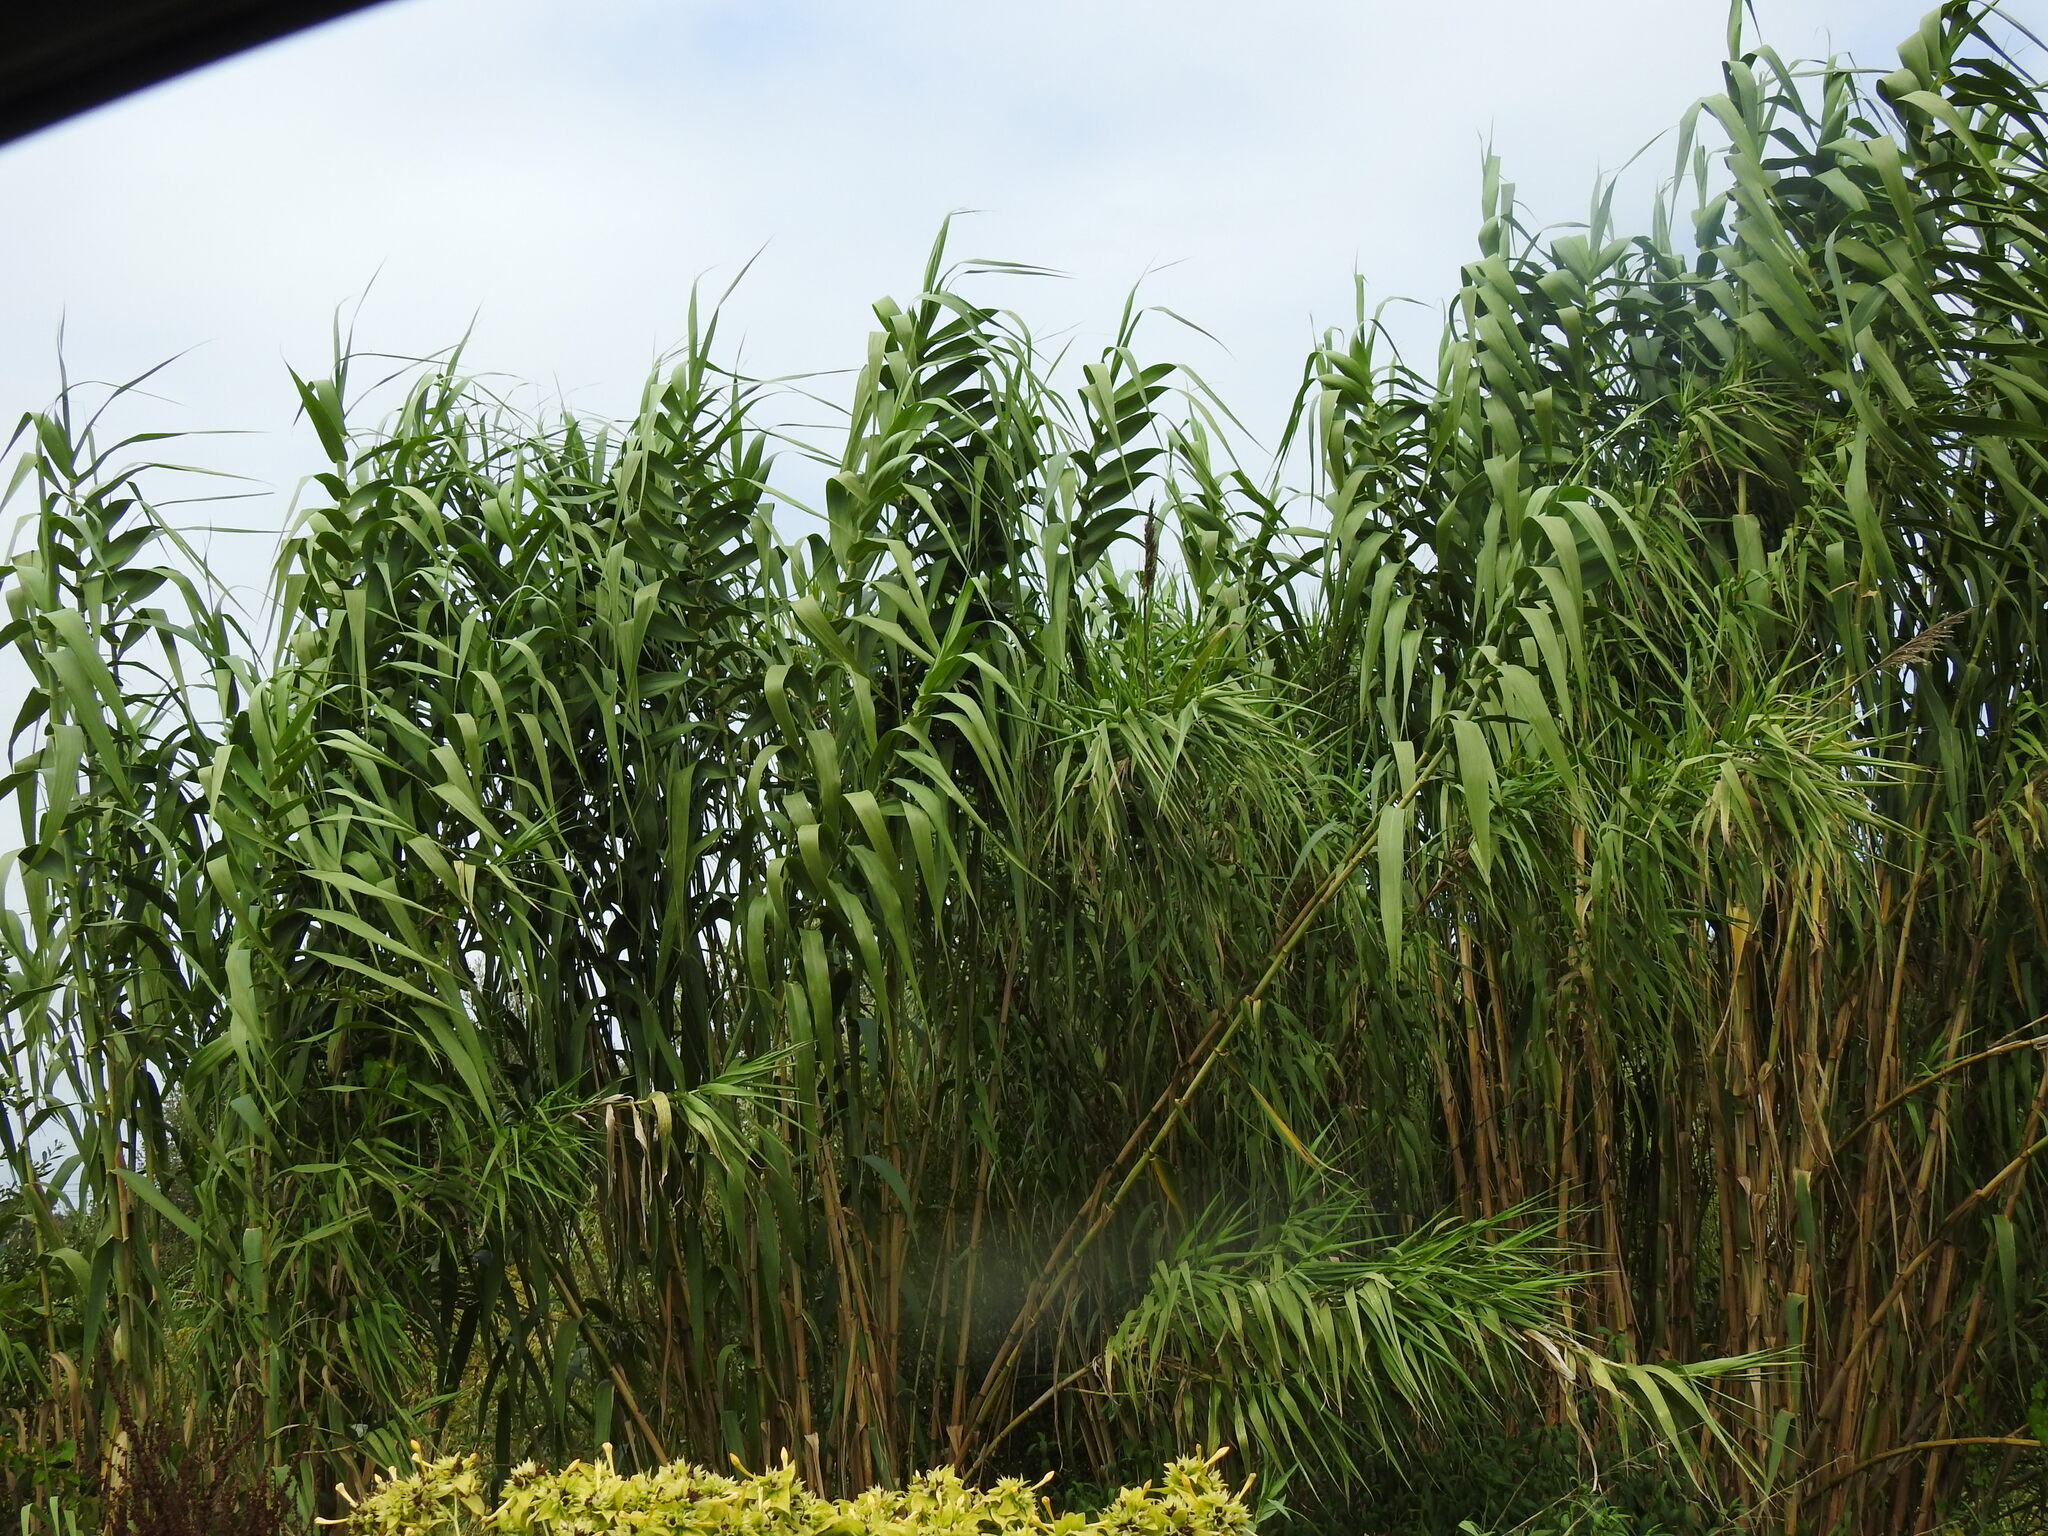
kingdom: Plantae
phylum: Tracheophyta
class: Liliopsida
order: Poales
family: Poaceae
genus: Arundo
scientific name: Arundo donax
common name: Giant reed
